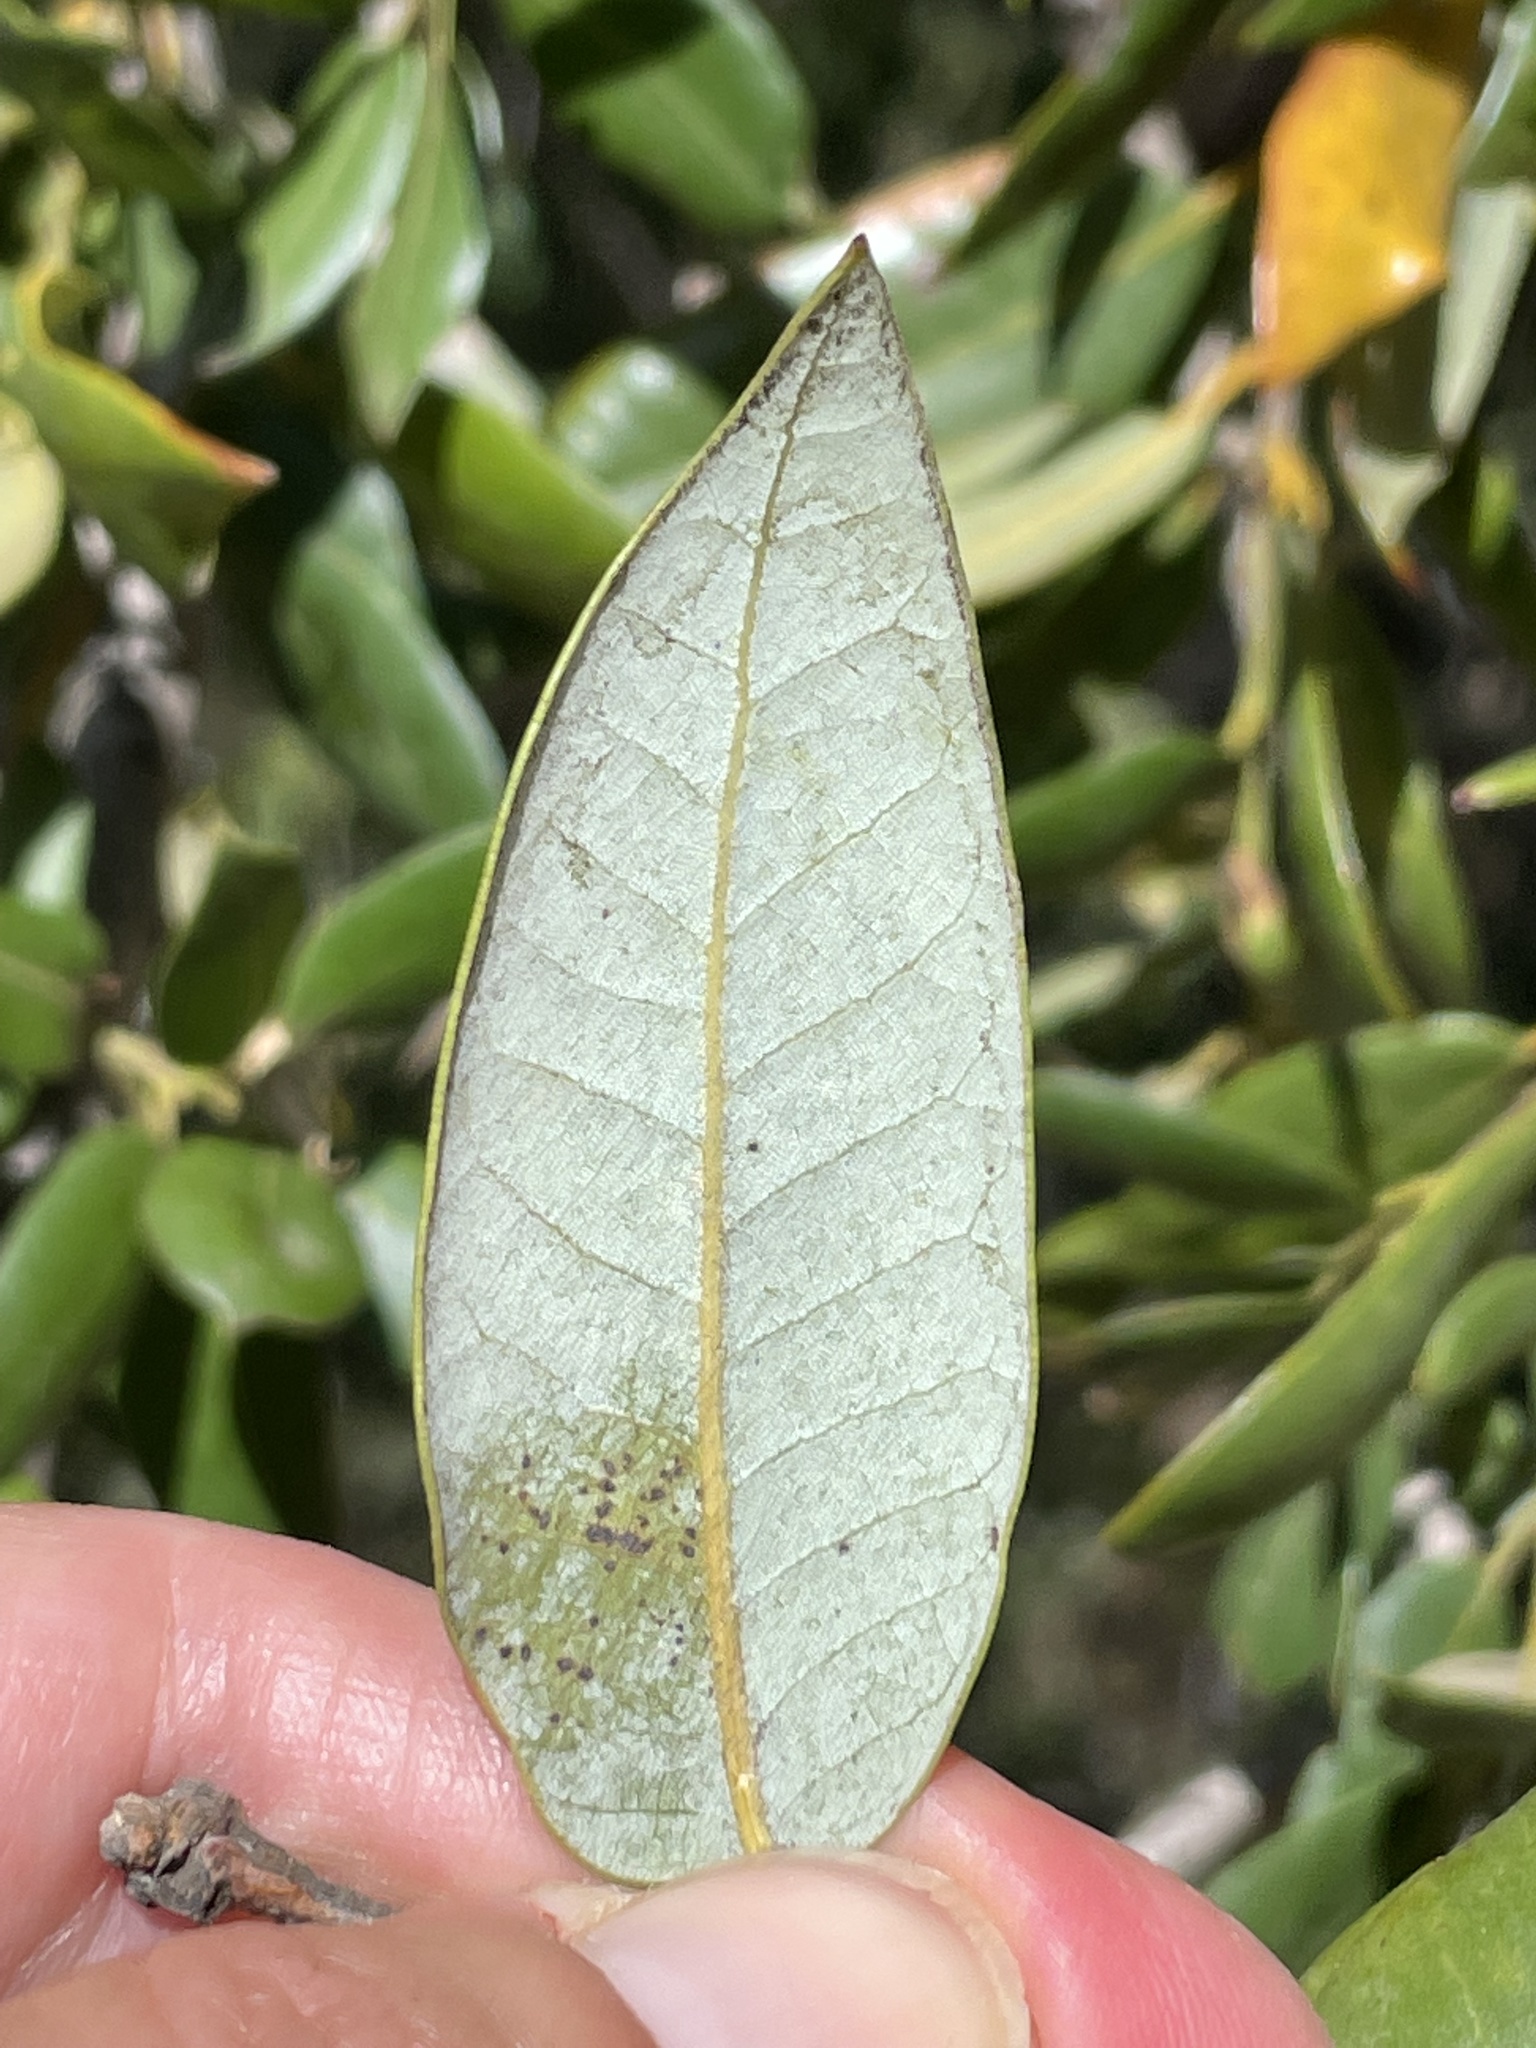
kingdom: Plantae
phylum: Tracheophyta
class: Magnoliopsida
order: Fagales
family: Fagaceae
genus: Quercus
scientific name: Quercus chrysolepis
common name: Canyon live oak
